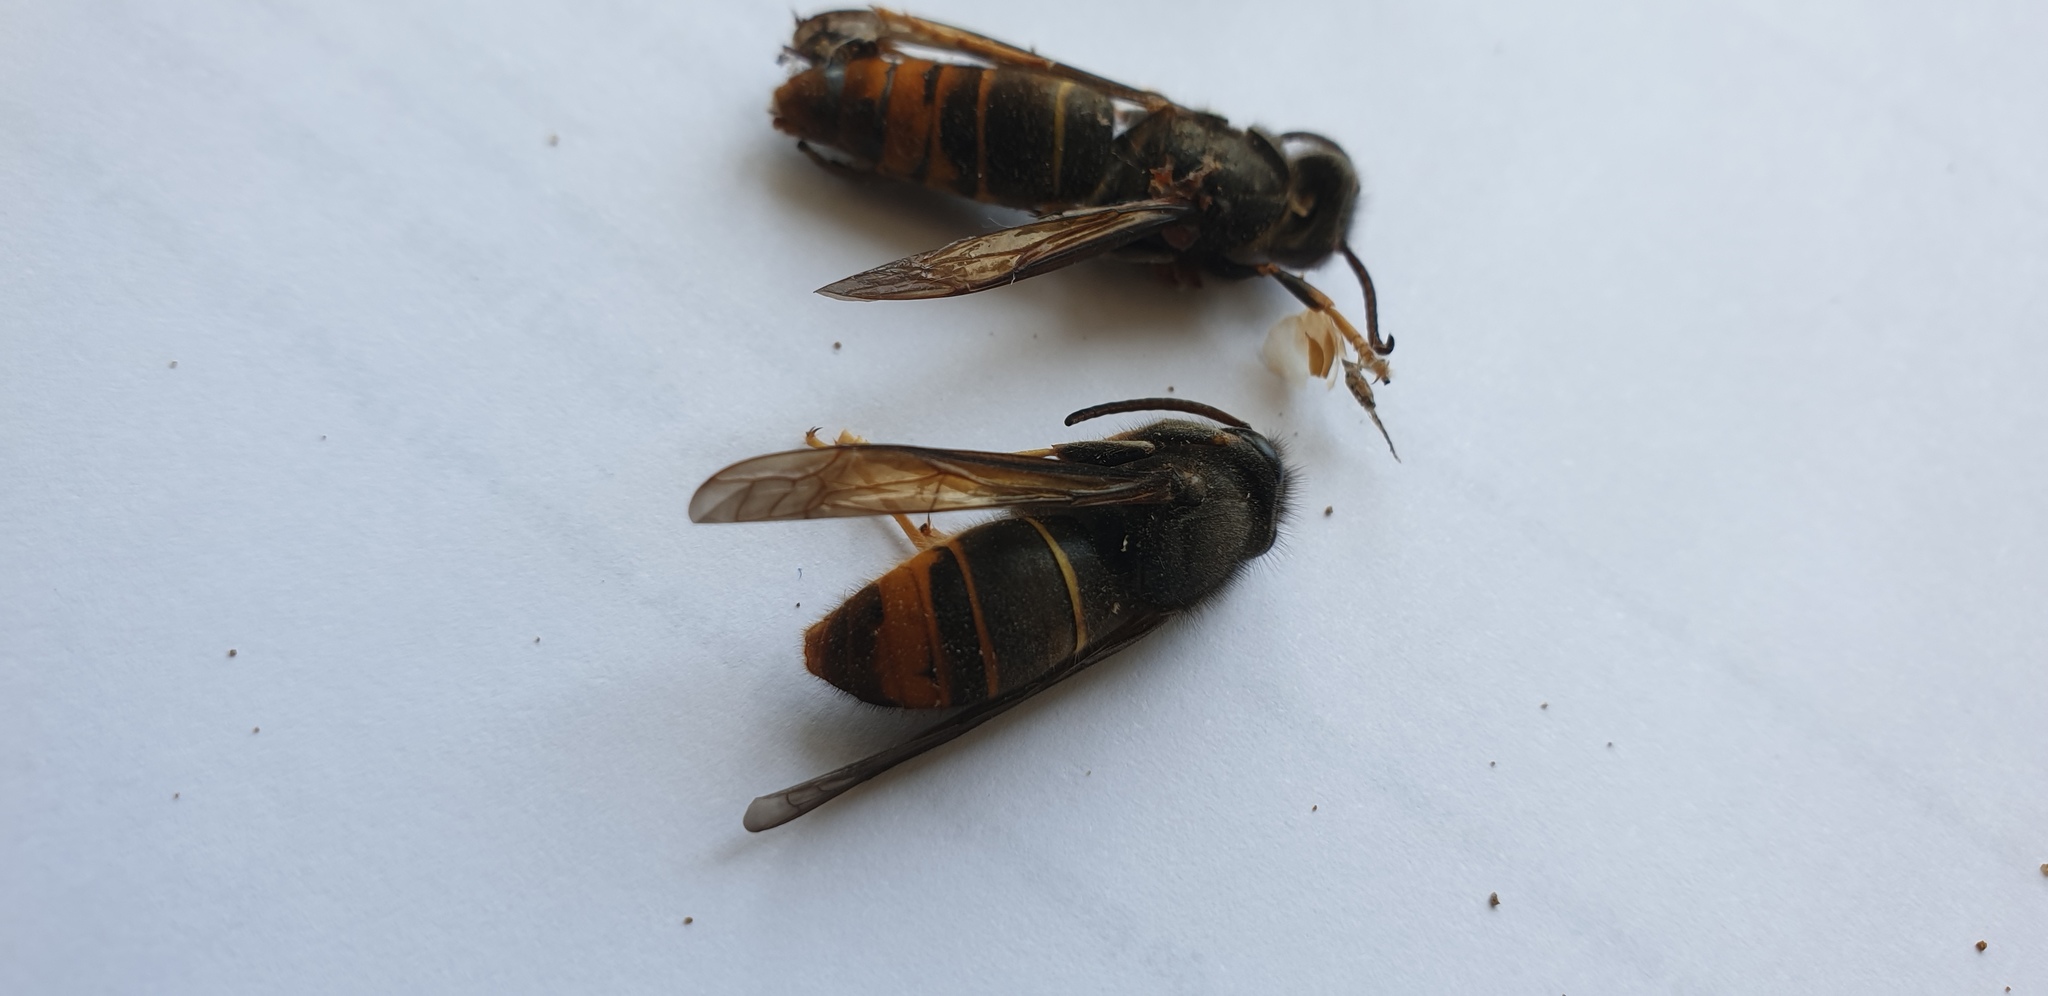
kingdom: Animalia
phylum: Arthropoda
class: Insecta
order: Hymenoptera
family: Vespidae
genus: Vespa
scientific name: Vespa velutina
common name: Asian hornet
